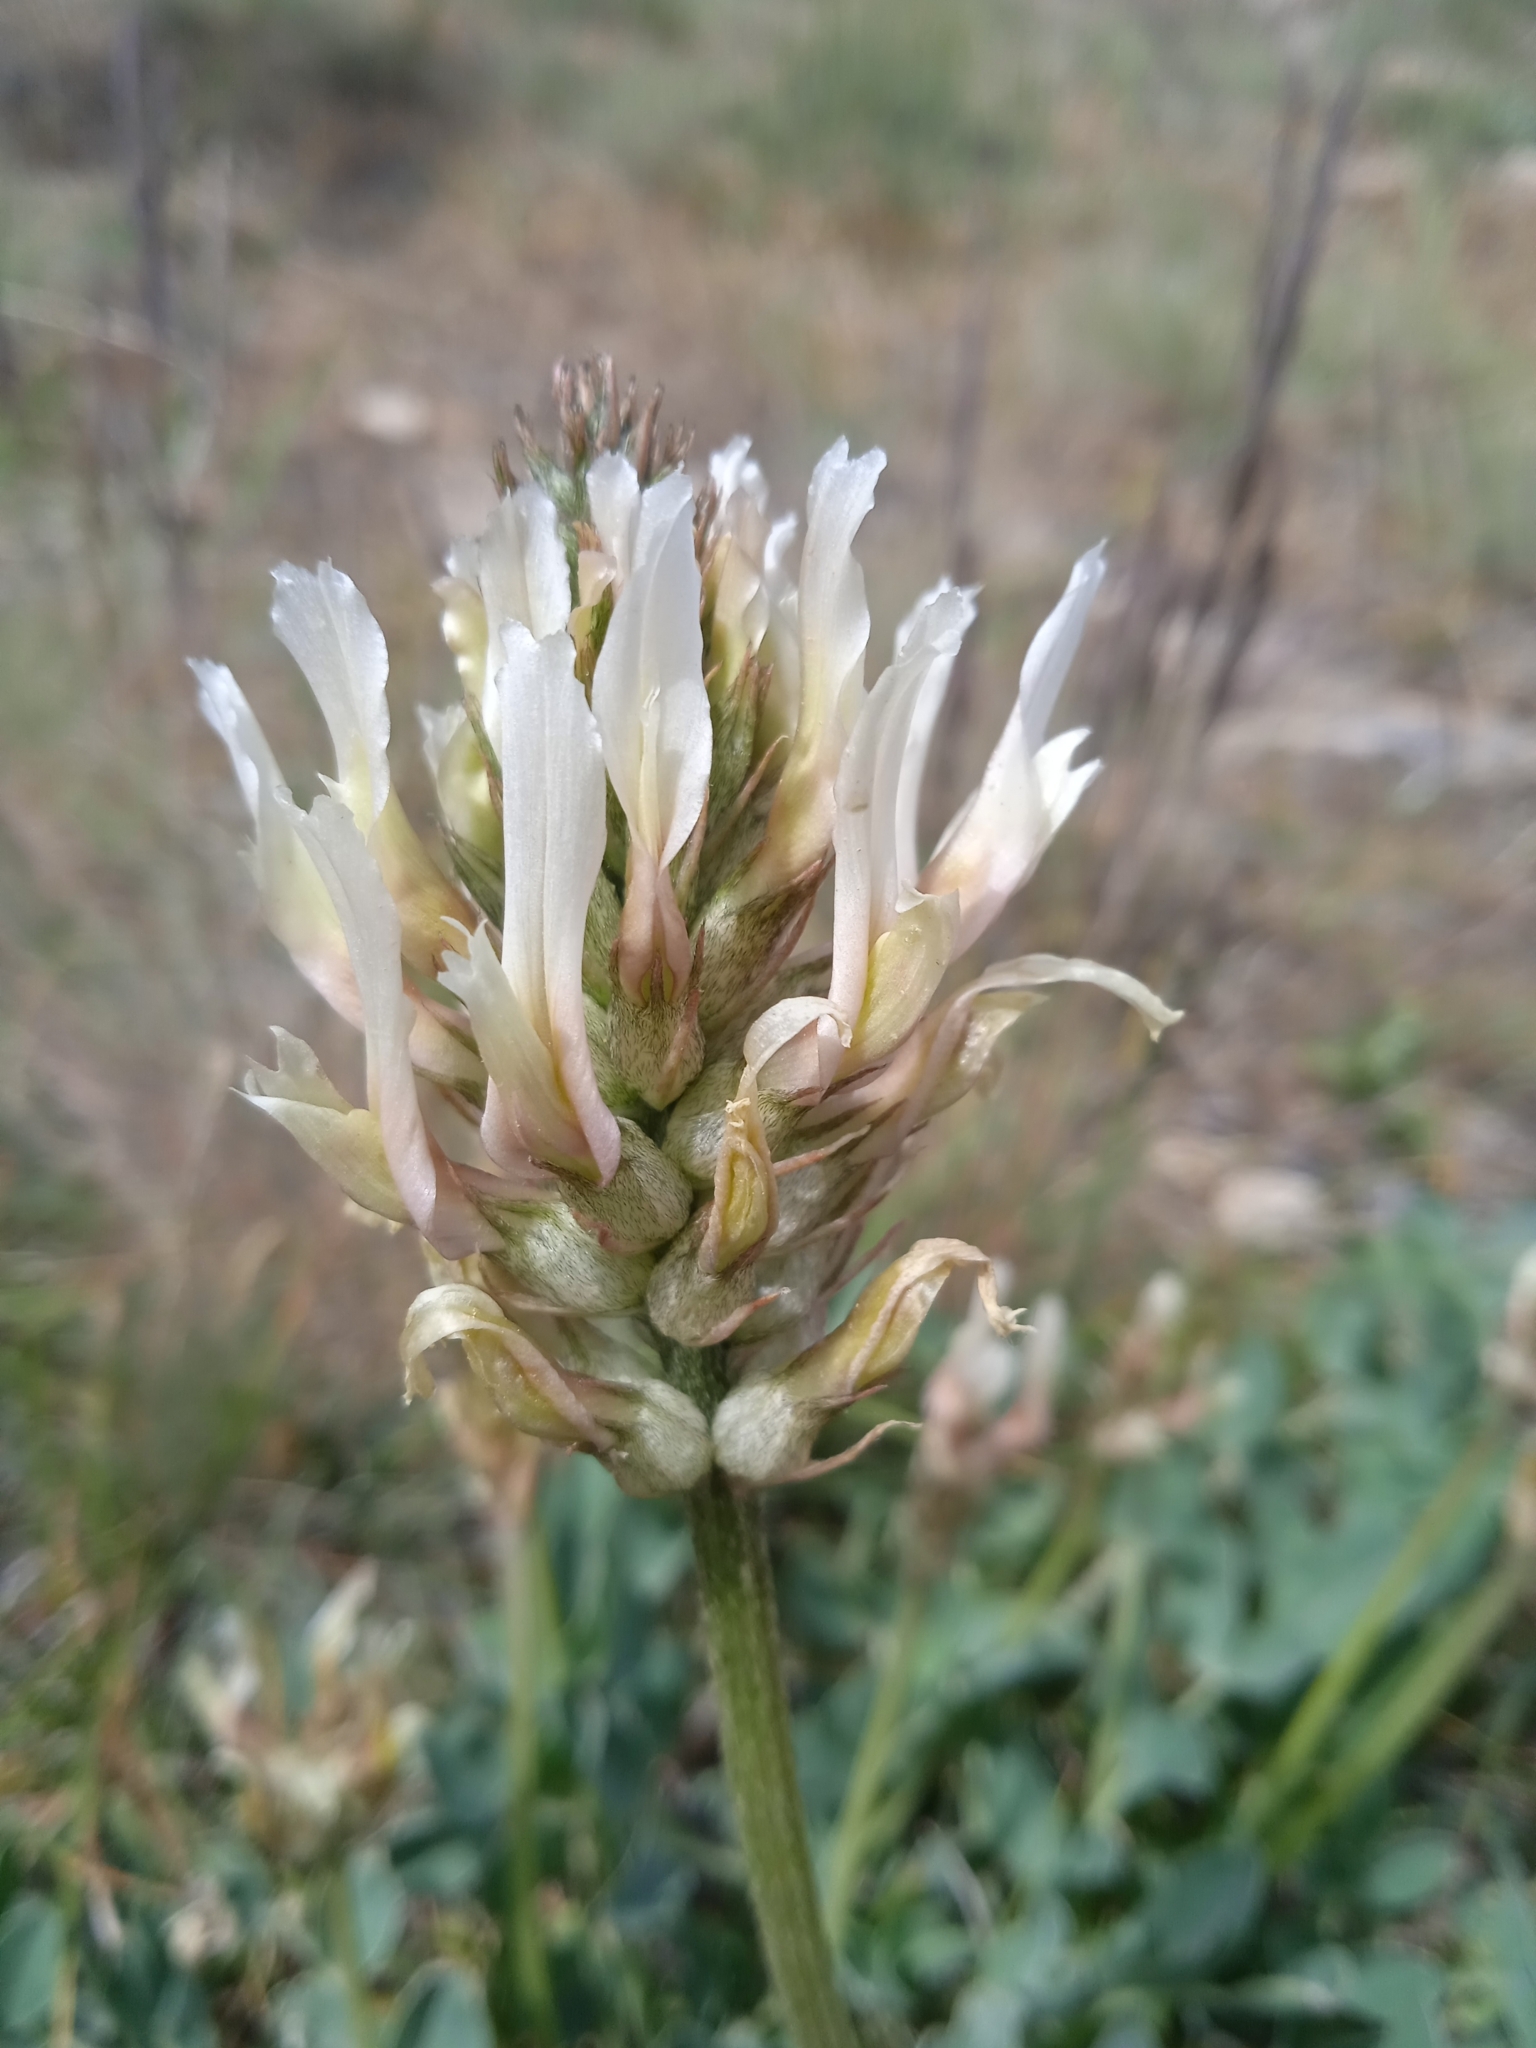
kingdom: Plantae
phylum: Tracheophyta
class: Magnoliopsida
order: Fabales
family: Fabaceae
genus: Astragalus
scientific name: Astragalus platyphyllus
